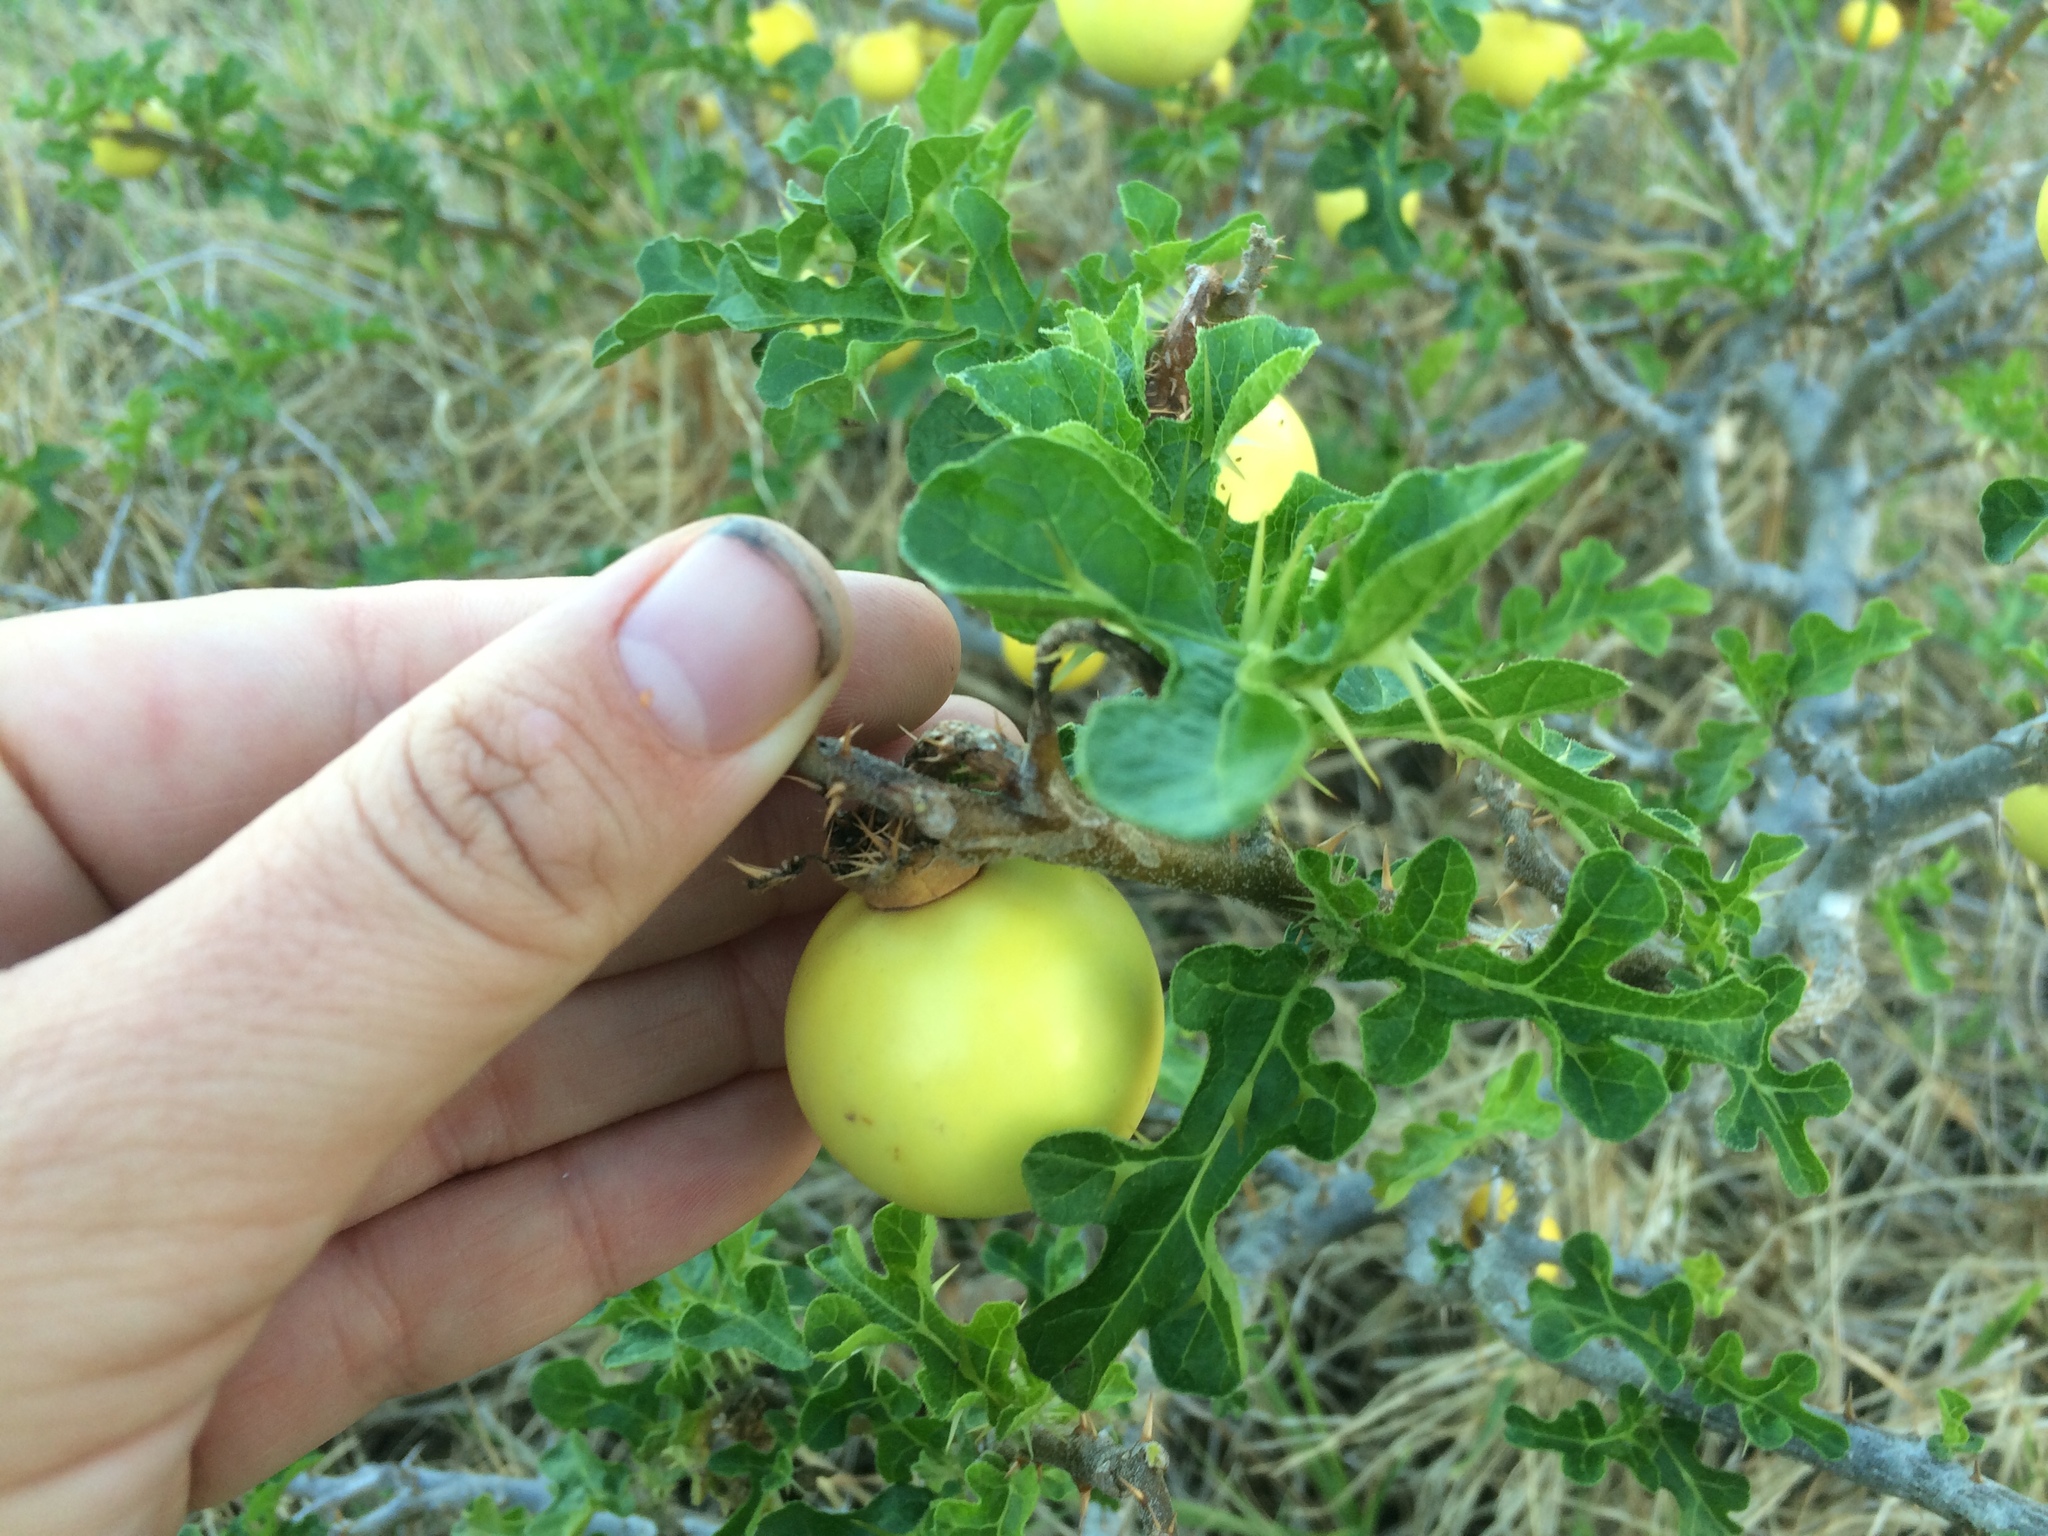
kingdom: Plantae
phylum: Tracheophyta
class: Magnoliopsida
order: Solanales
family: Solanaceae
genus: Solanum
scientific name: Solanum linnaeanum
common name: Nightshade
